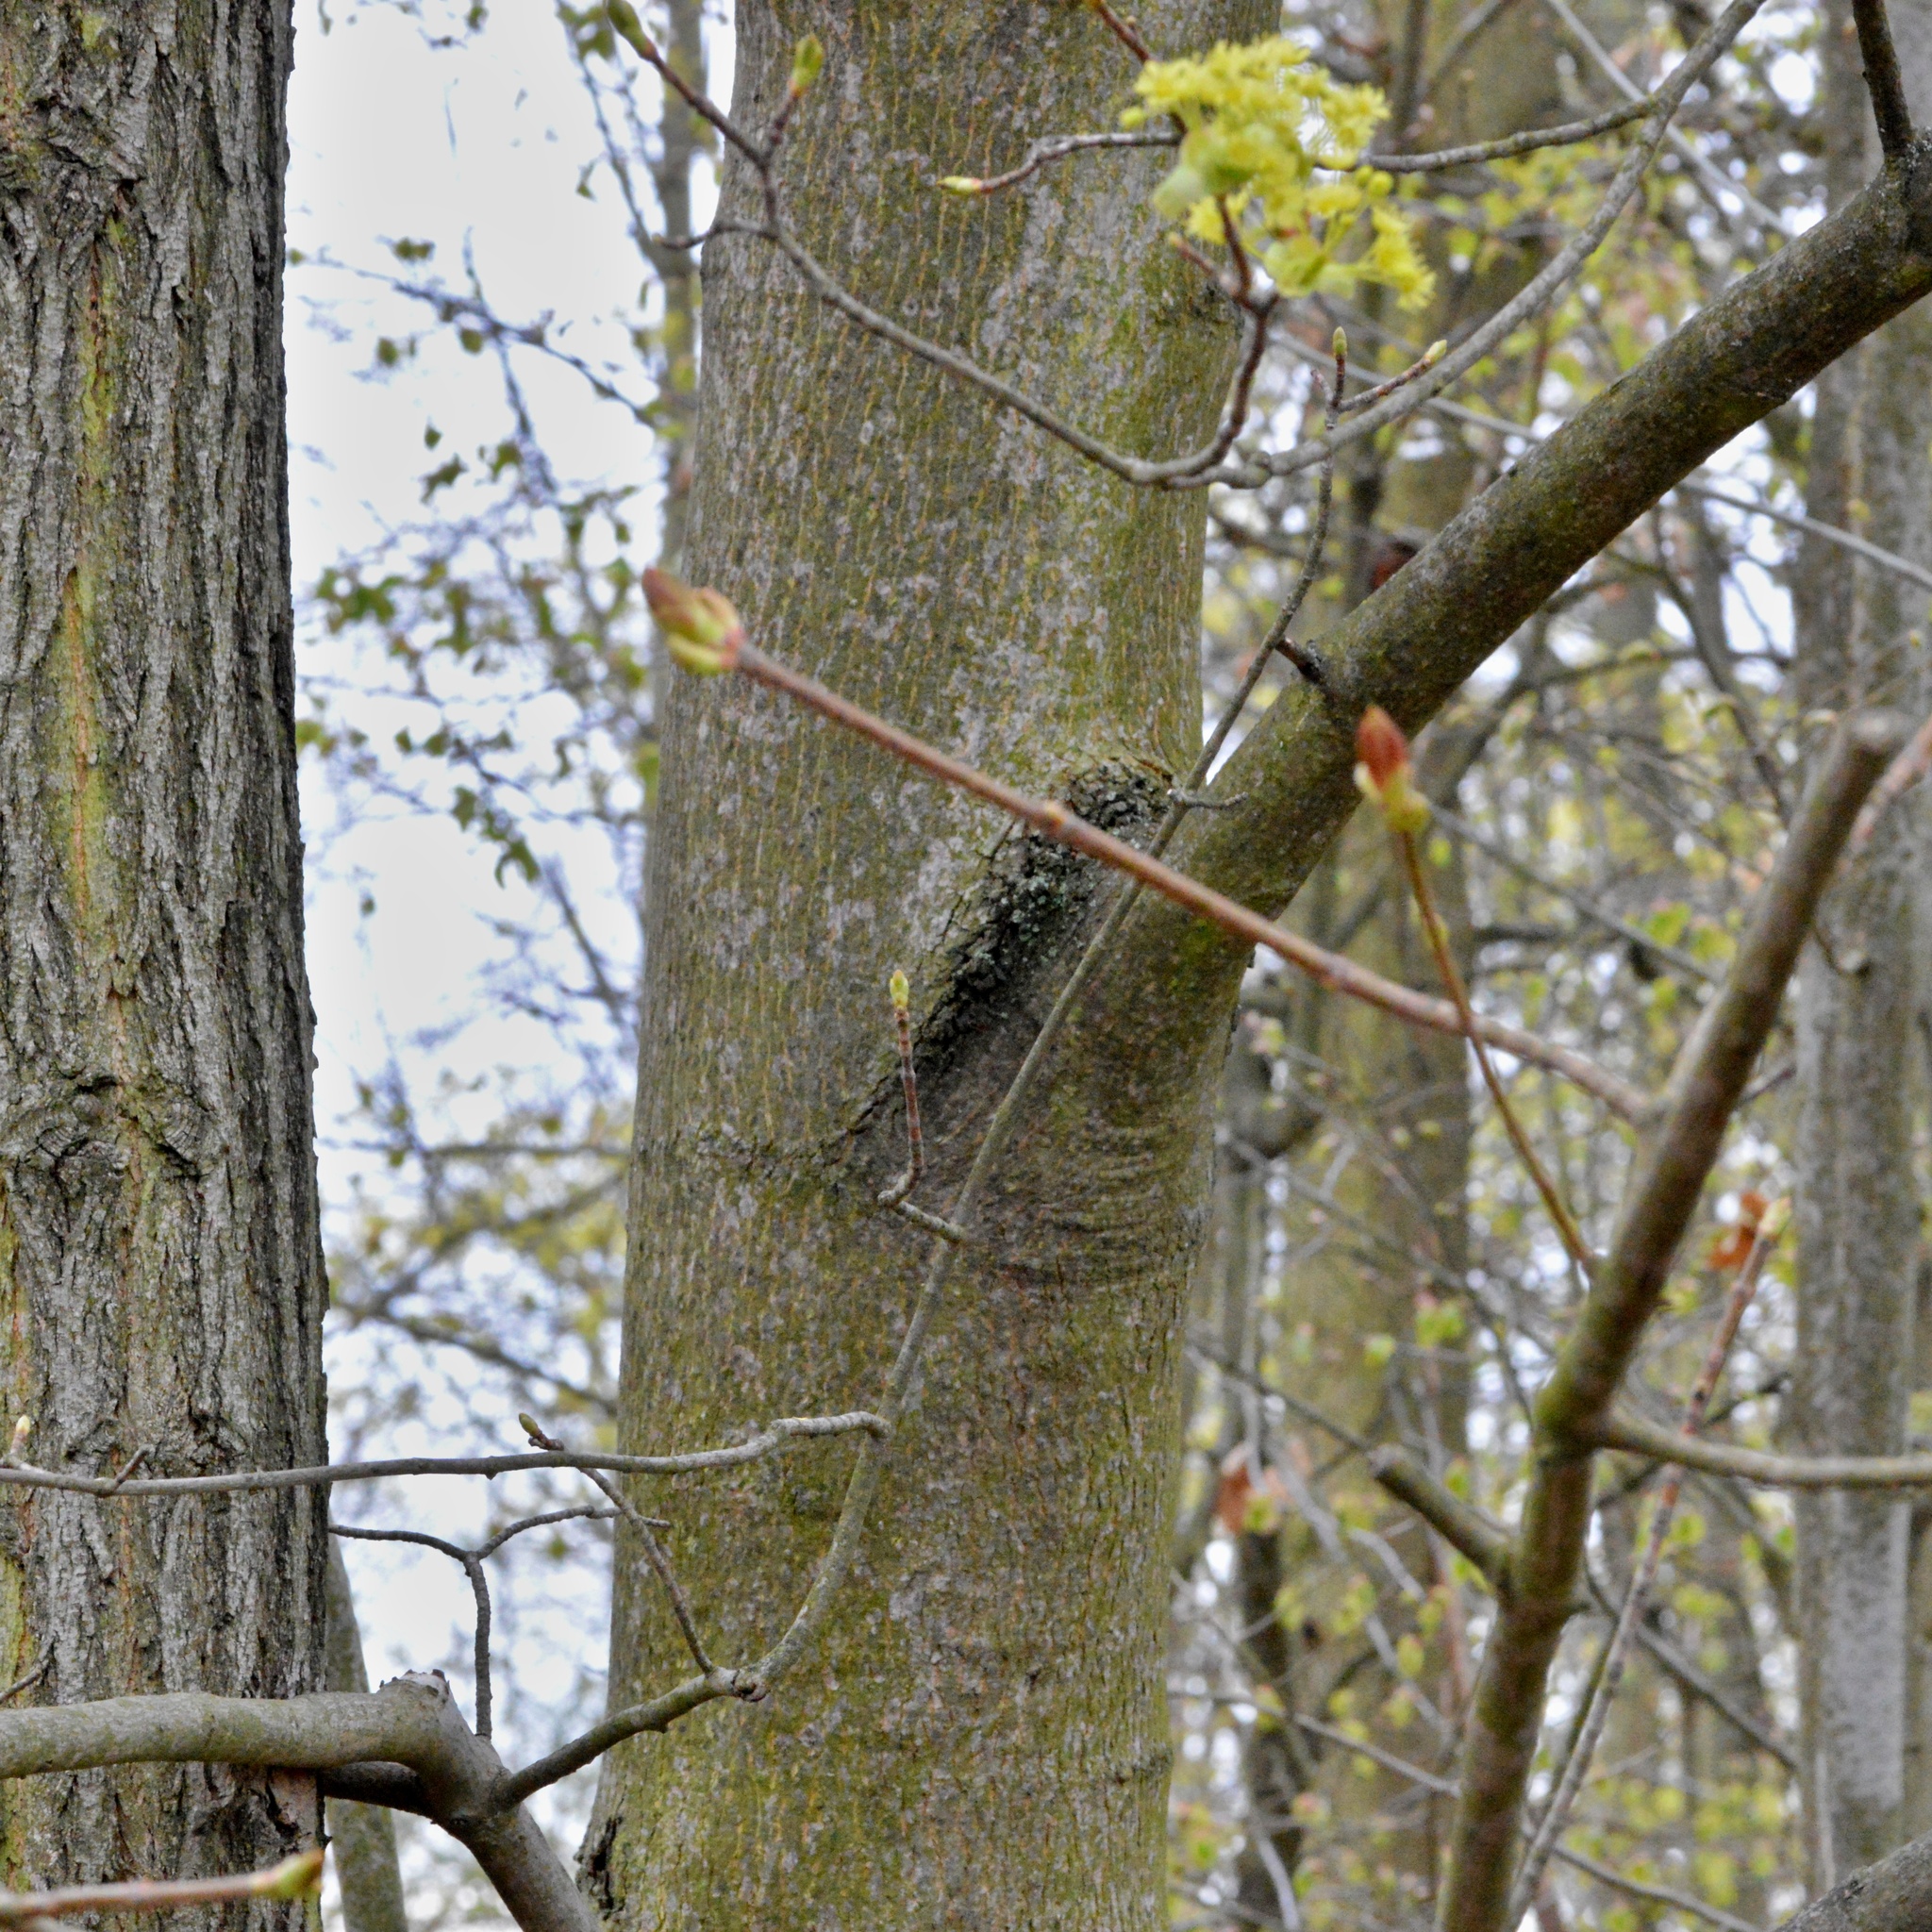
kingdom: Plantae
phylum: Tracheophyta
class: Magnoliopsida
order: Sapindales
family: Sapindaceae
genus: Acer
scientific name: Acer platanoides
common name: Norway maple
